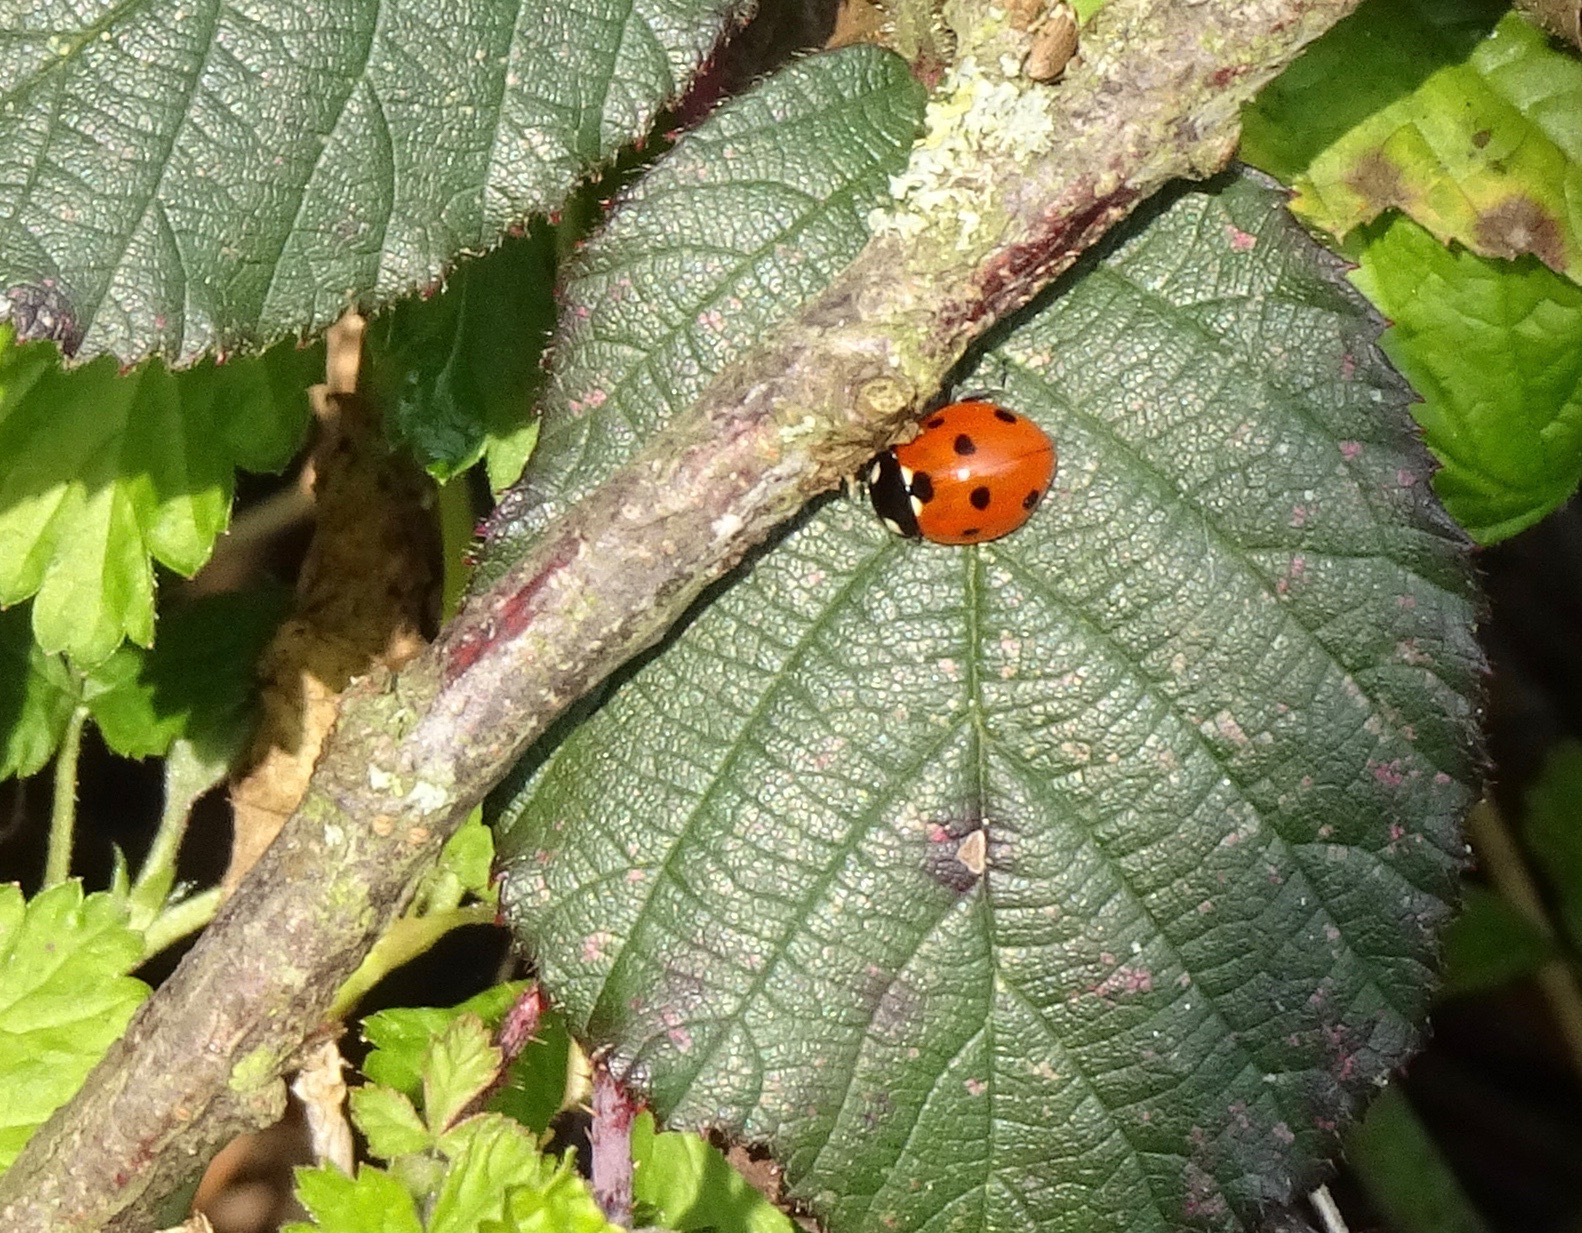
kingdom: Animalia
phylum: Arthropoda
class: Insecta
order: Coleoptera
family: Coccinellidae
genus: Coccinella
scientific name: Coccinella septempunctata
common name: Sevenspotted lady beetle
